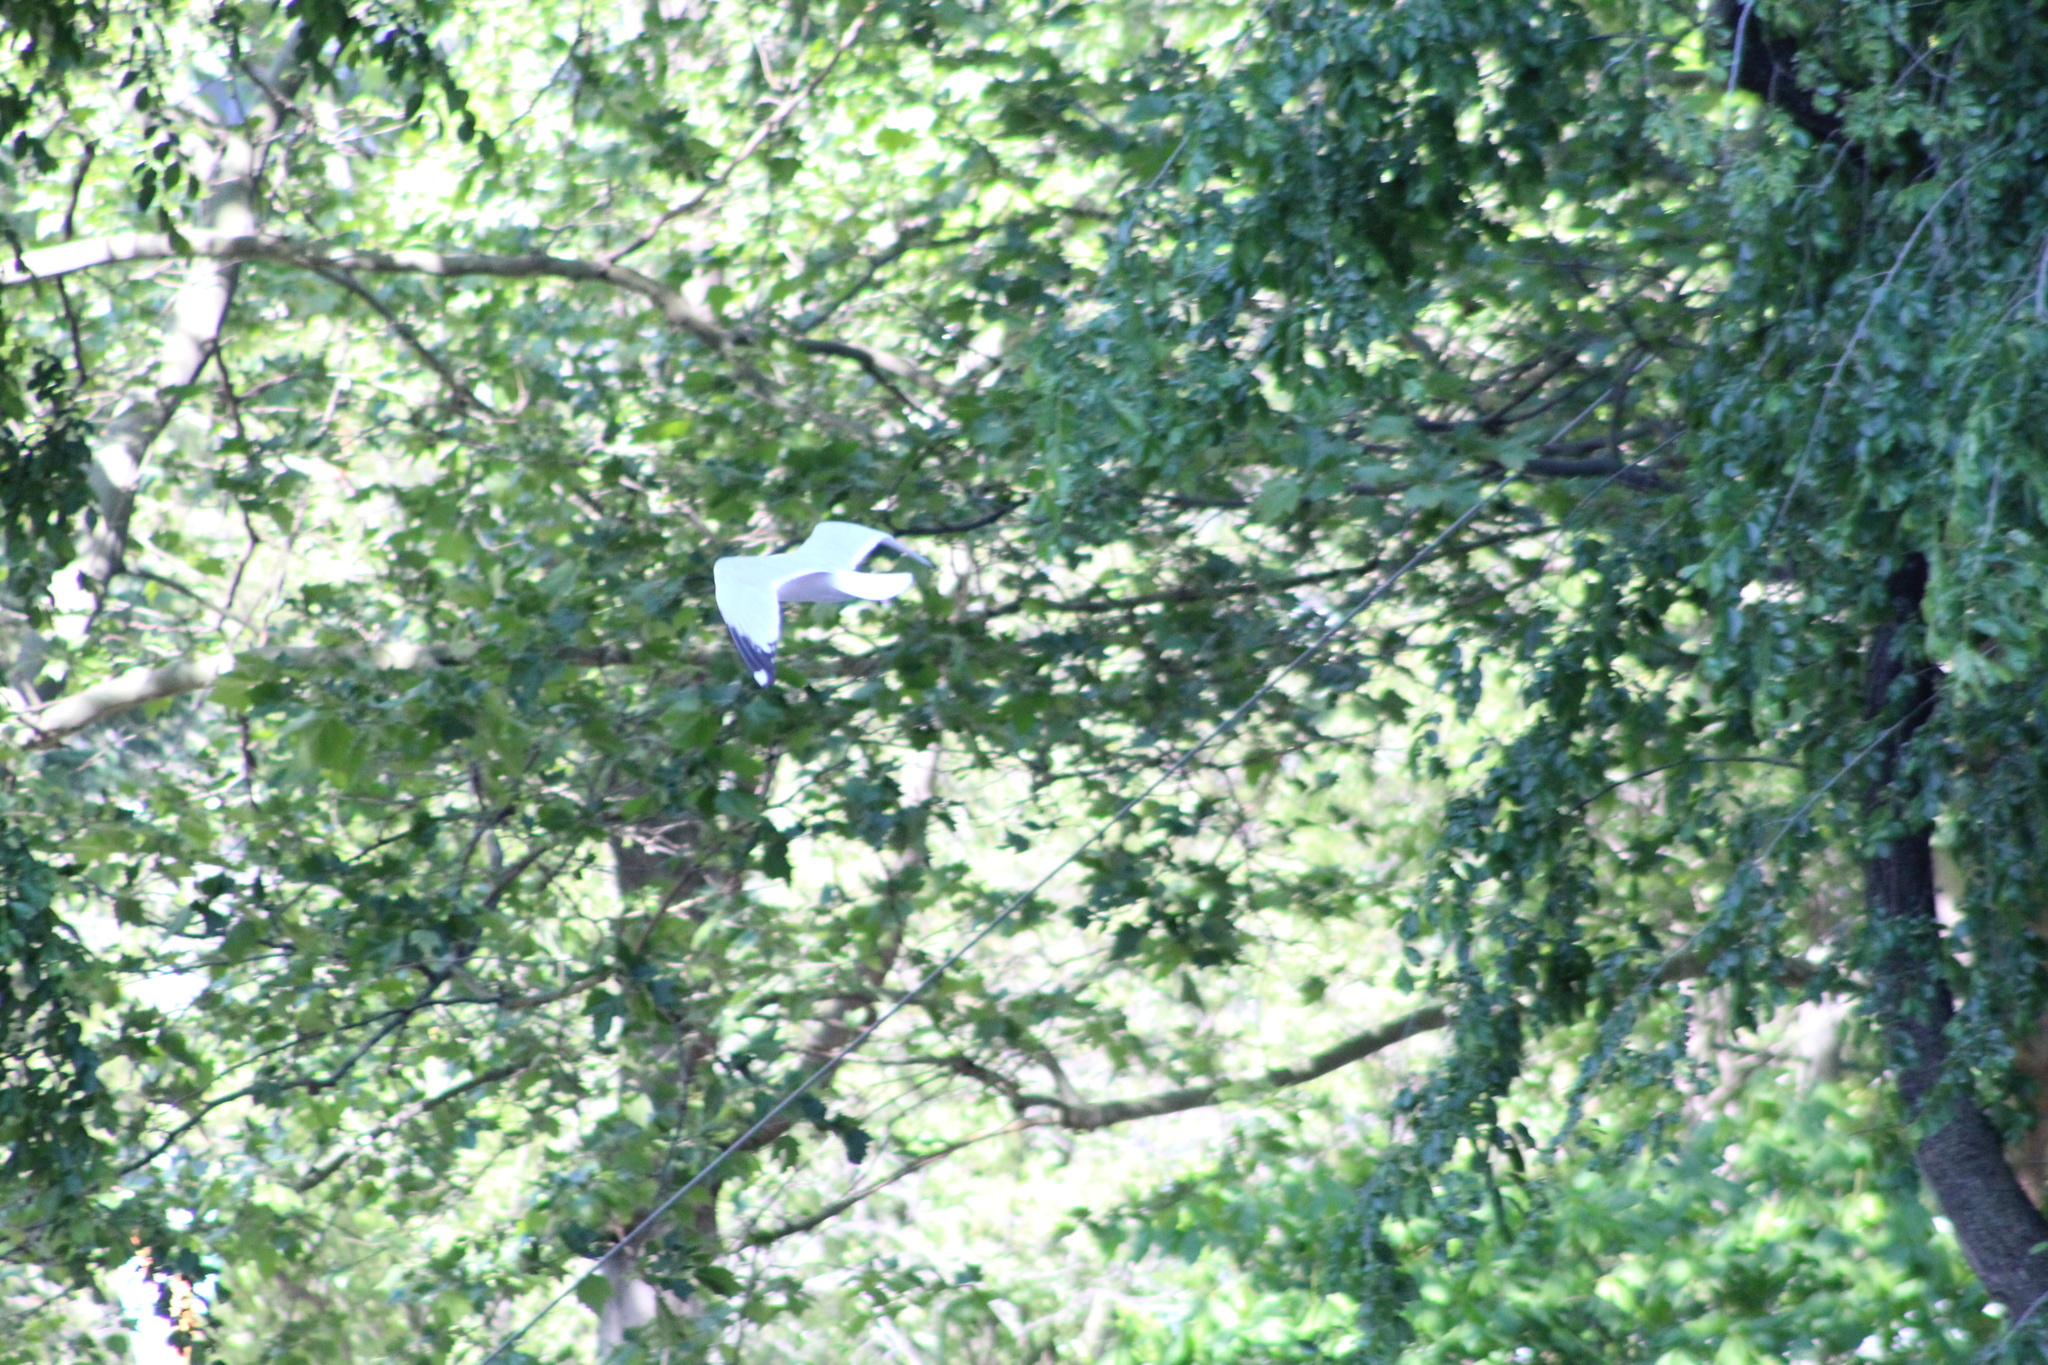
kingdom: Animalia
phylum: Chordata
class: Aves
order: Charadriiformes
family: Laridae
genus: Larus
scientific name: Larus delawarensis
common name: Ring-billed gull
